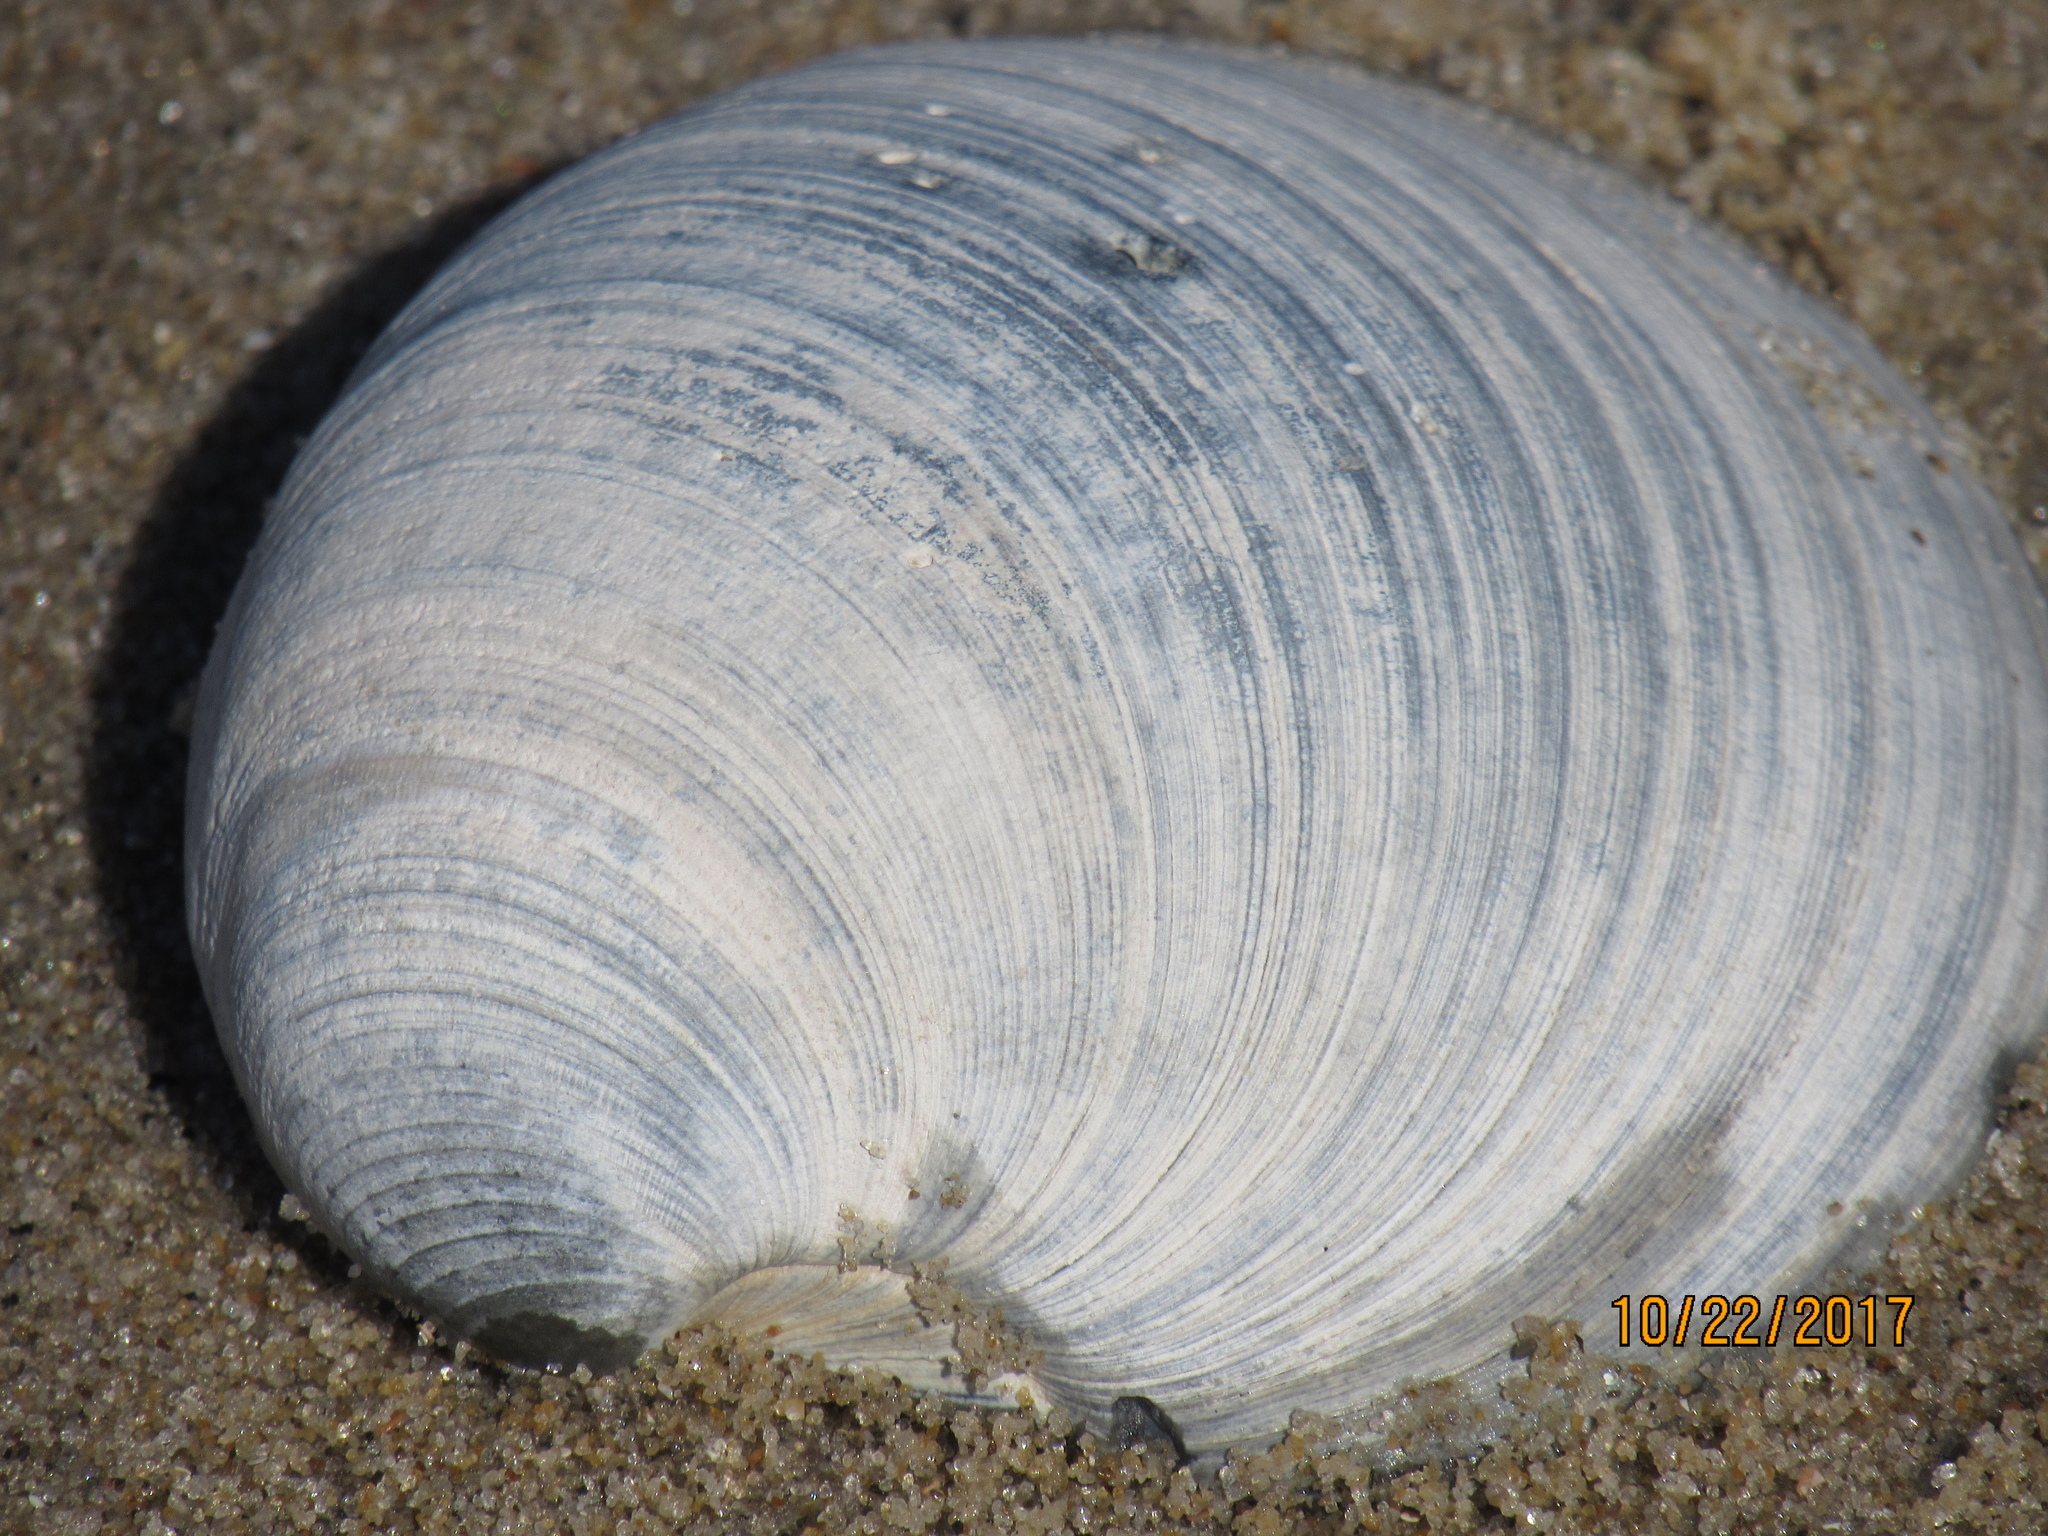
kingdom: Animalia
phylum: Mollusca
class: Bivalvia
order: Venerida
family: Veneridae
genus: Mercenaria
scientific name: Mercenaria mercenaria
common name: American hard-shelled clam
